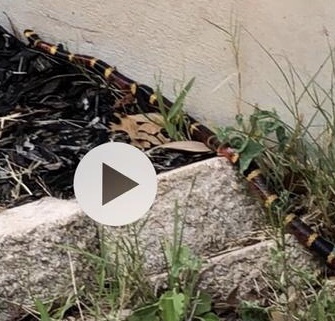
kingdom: Animalia
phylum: Chordata
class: Squamata
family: Elapidae
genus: Micrurus
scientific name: Micrurus tener
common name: Texas coral snake
